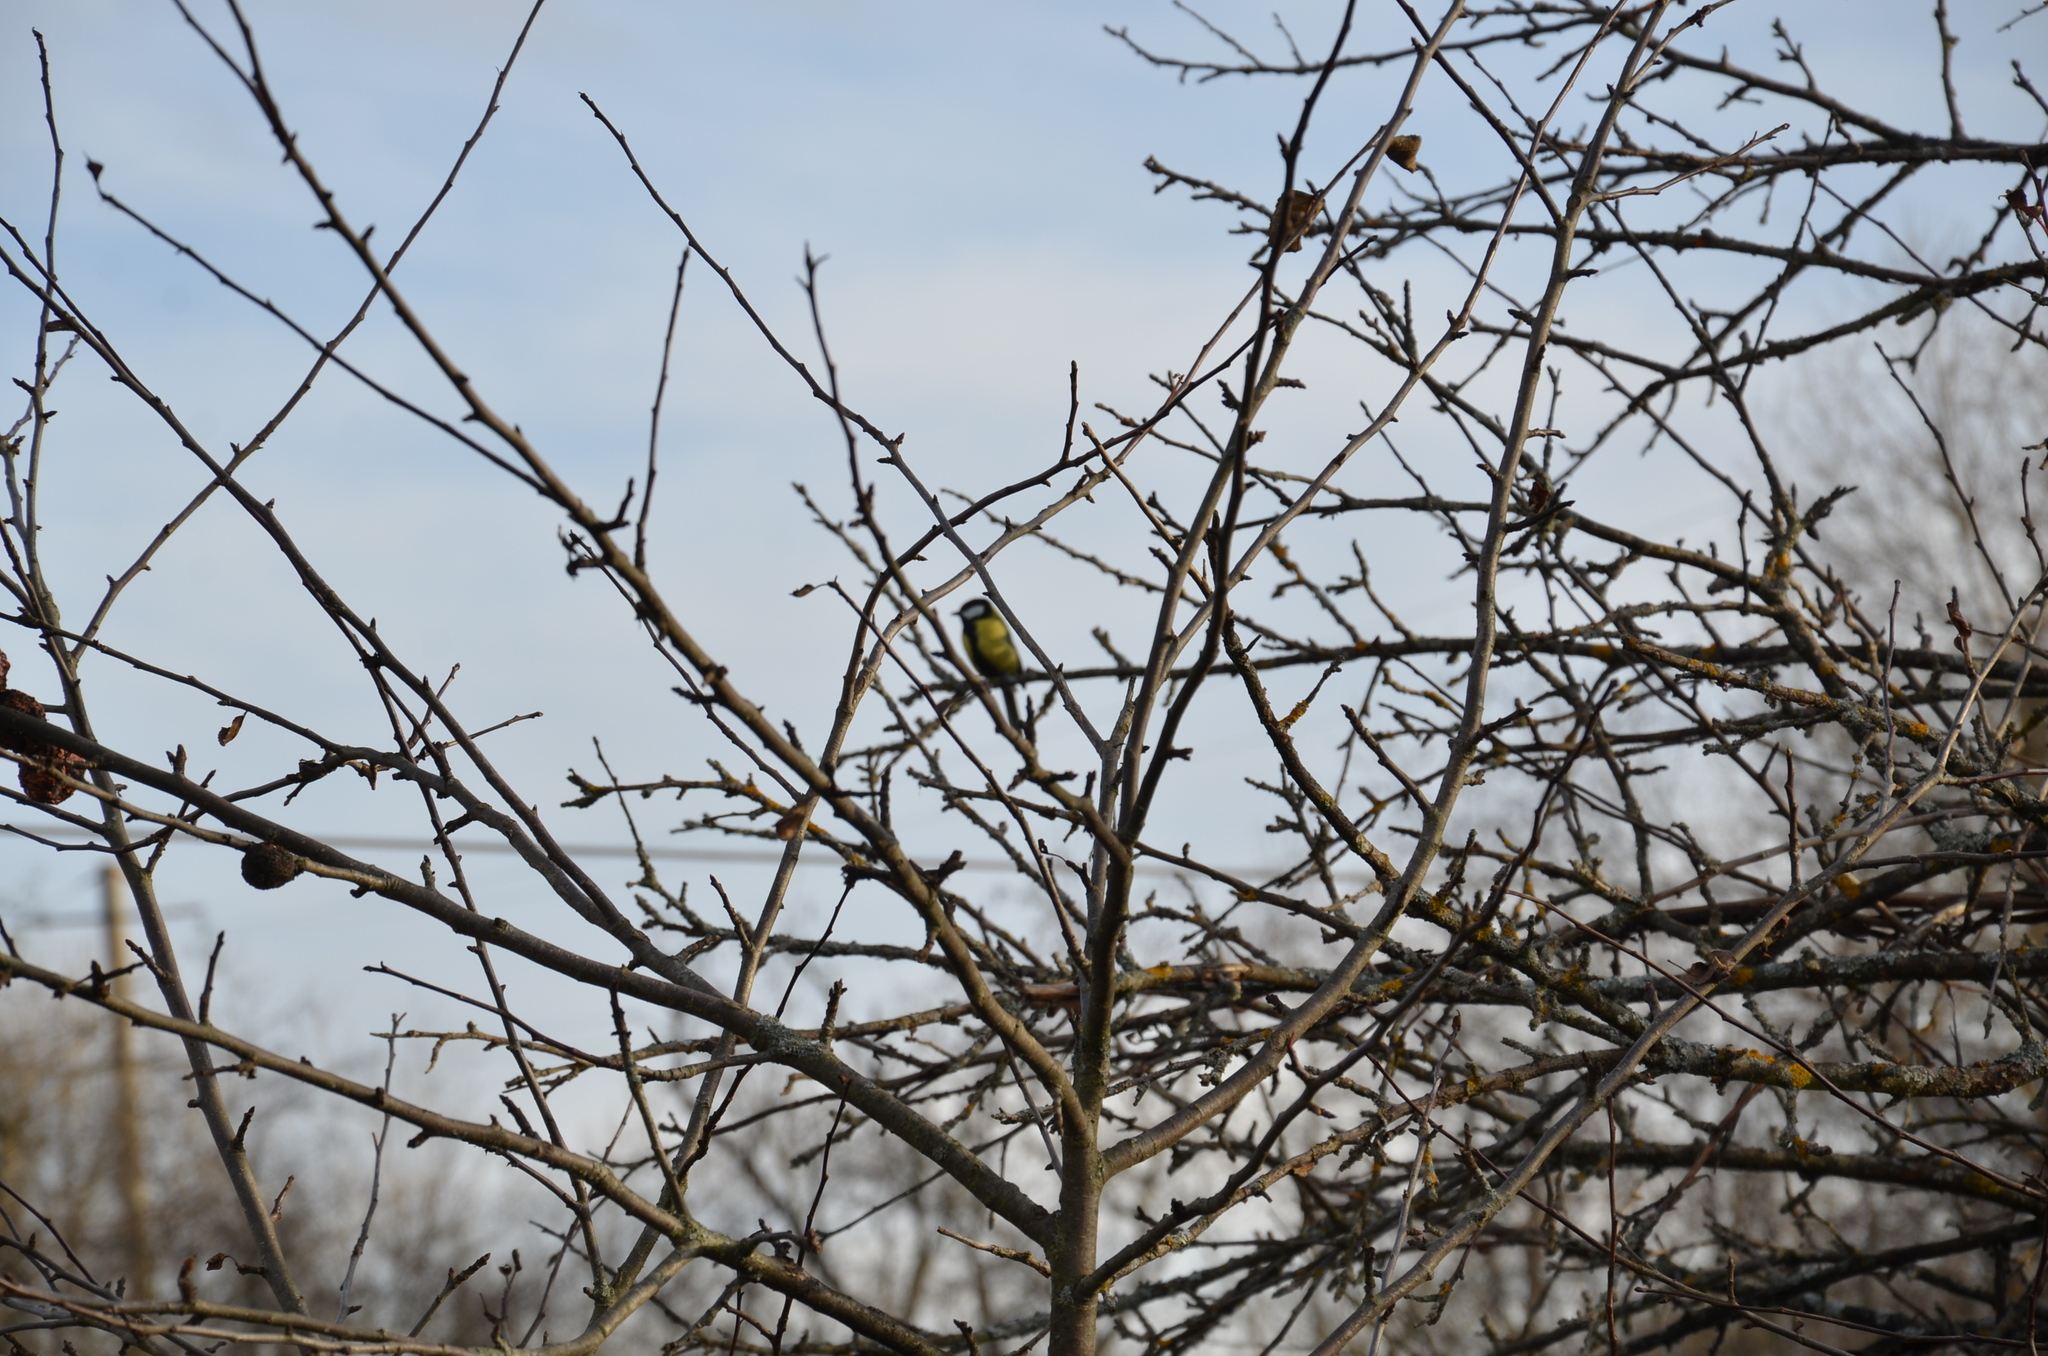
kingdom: Animalia
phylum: Chordata
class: Aves
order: Passeriformes
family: Paridae
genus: Parus
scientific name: Parus major
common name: Great tit
